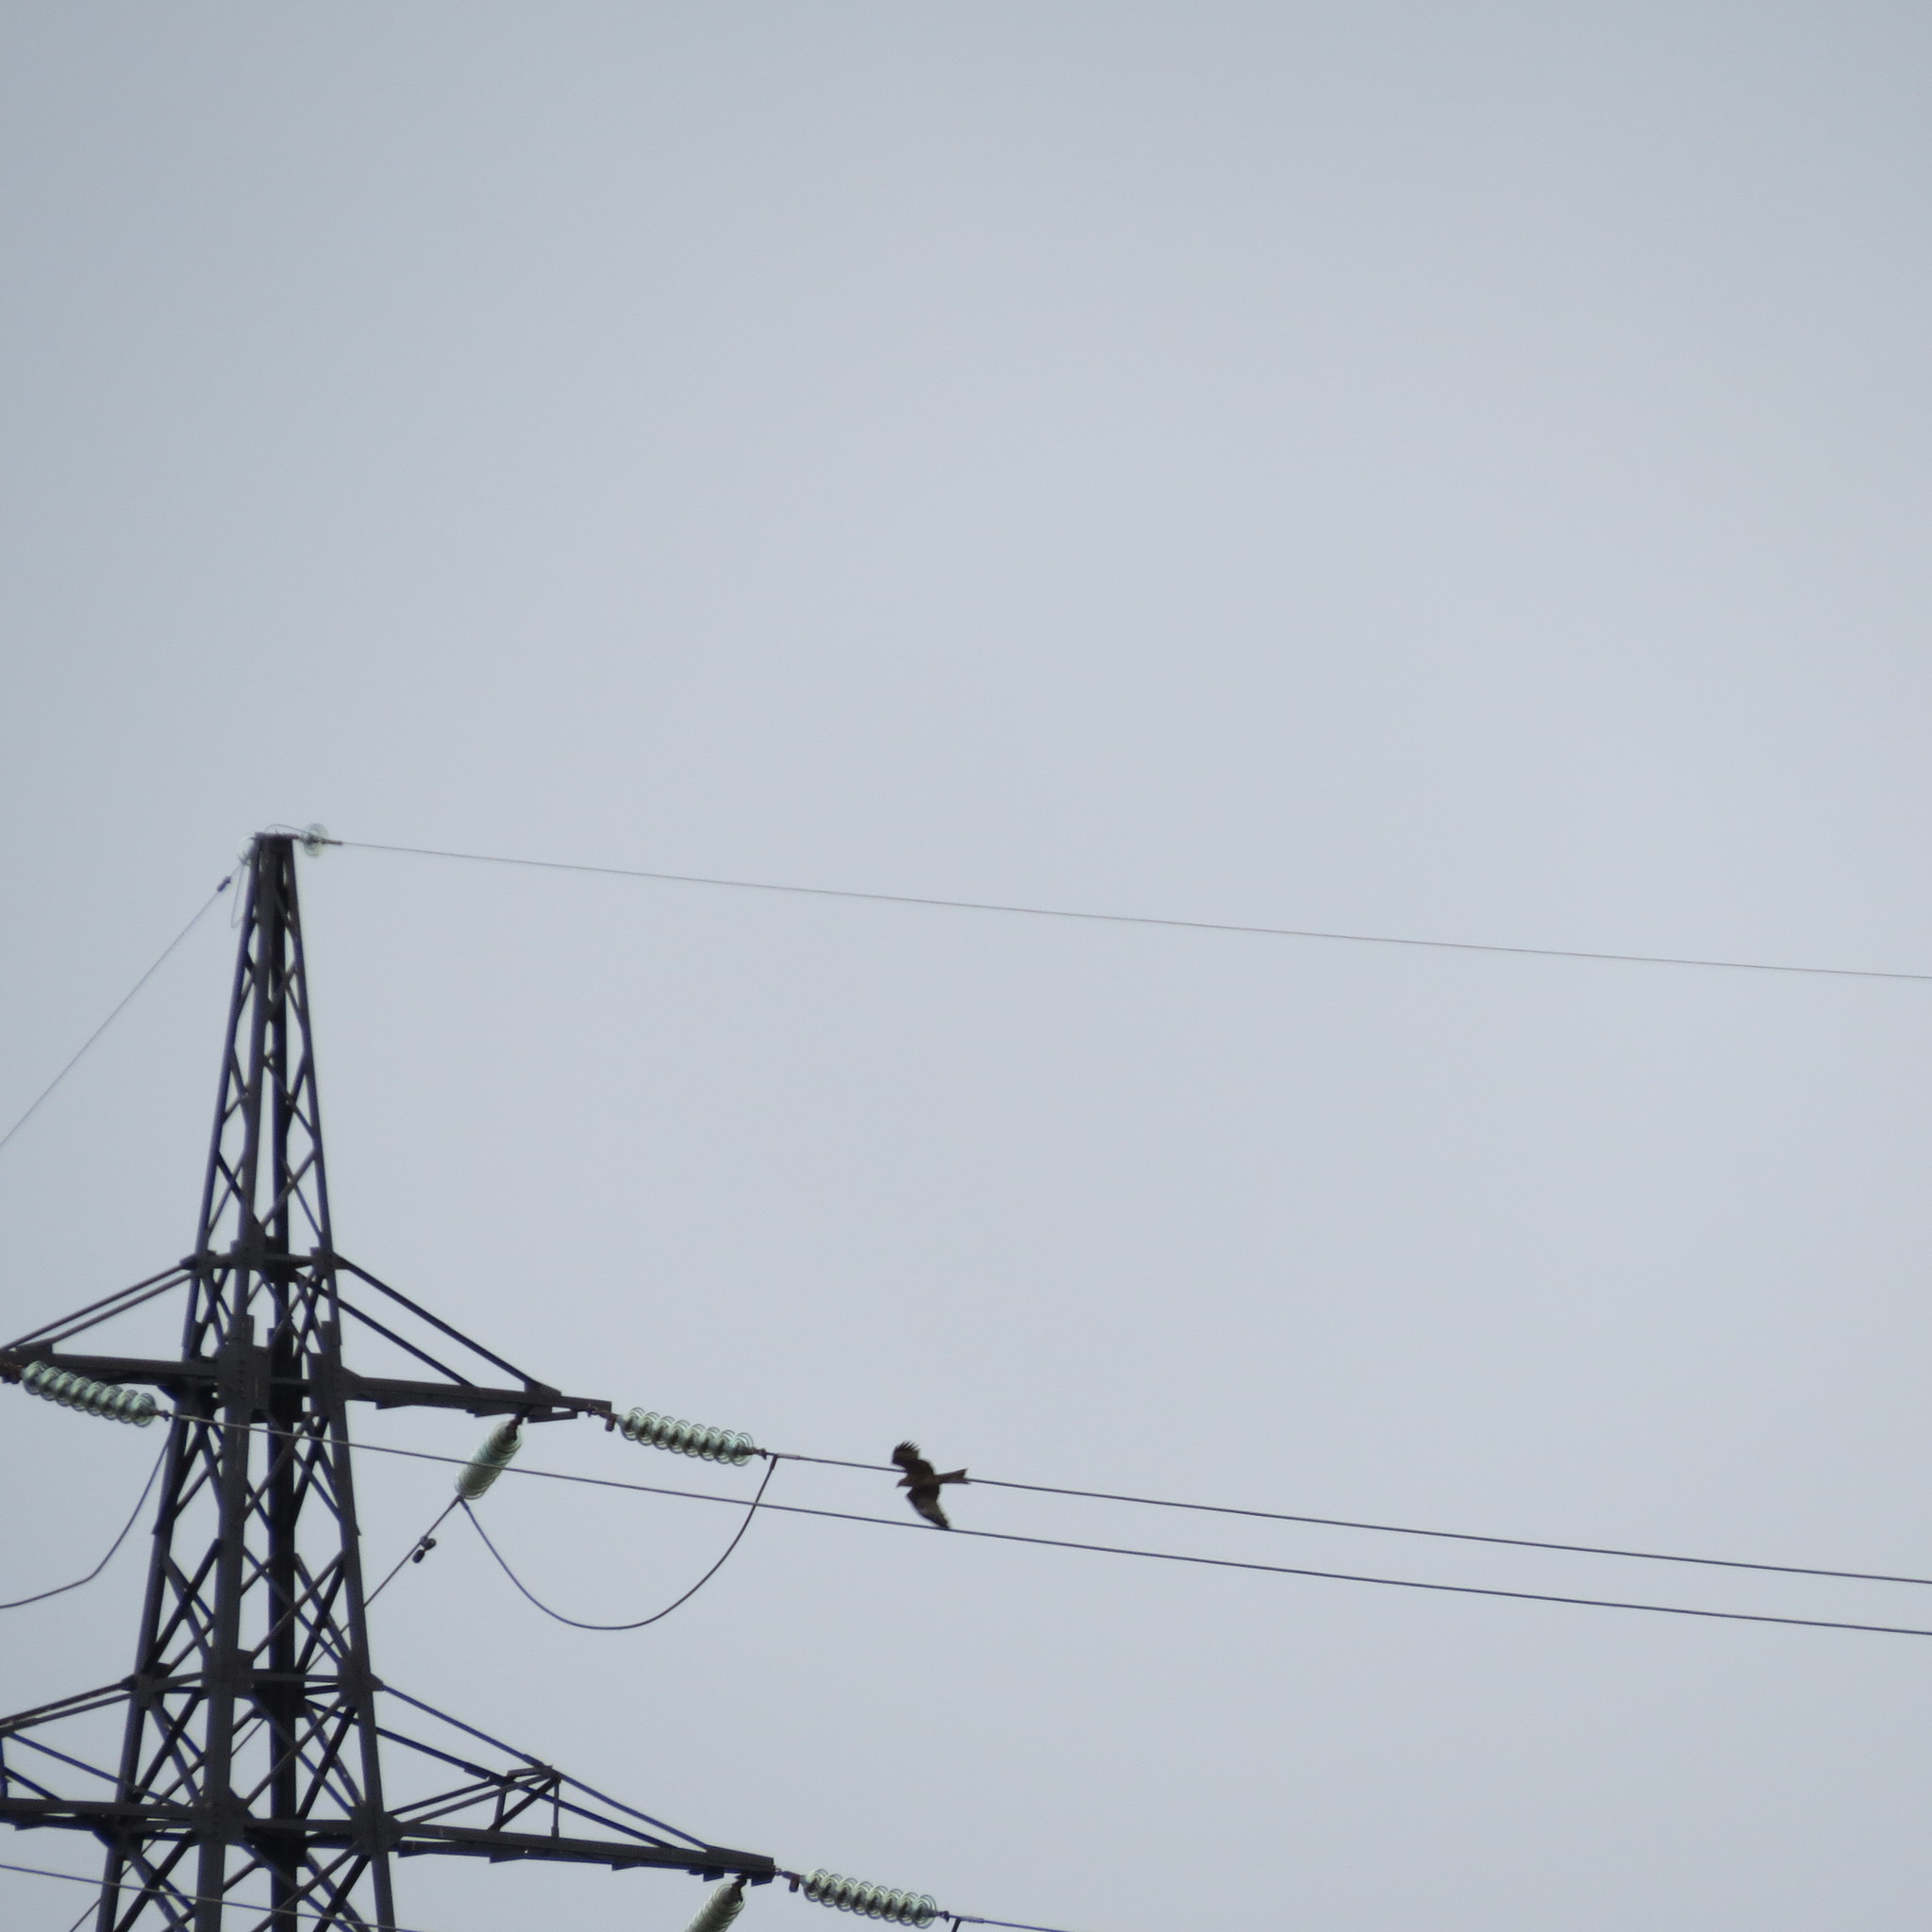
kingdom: Animalia
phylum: Chordata
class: Aves
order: Accipitriformes
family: Accipitridae
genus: Milvus
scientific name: Milvus migrans
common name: Black kite
